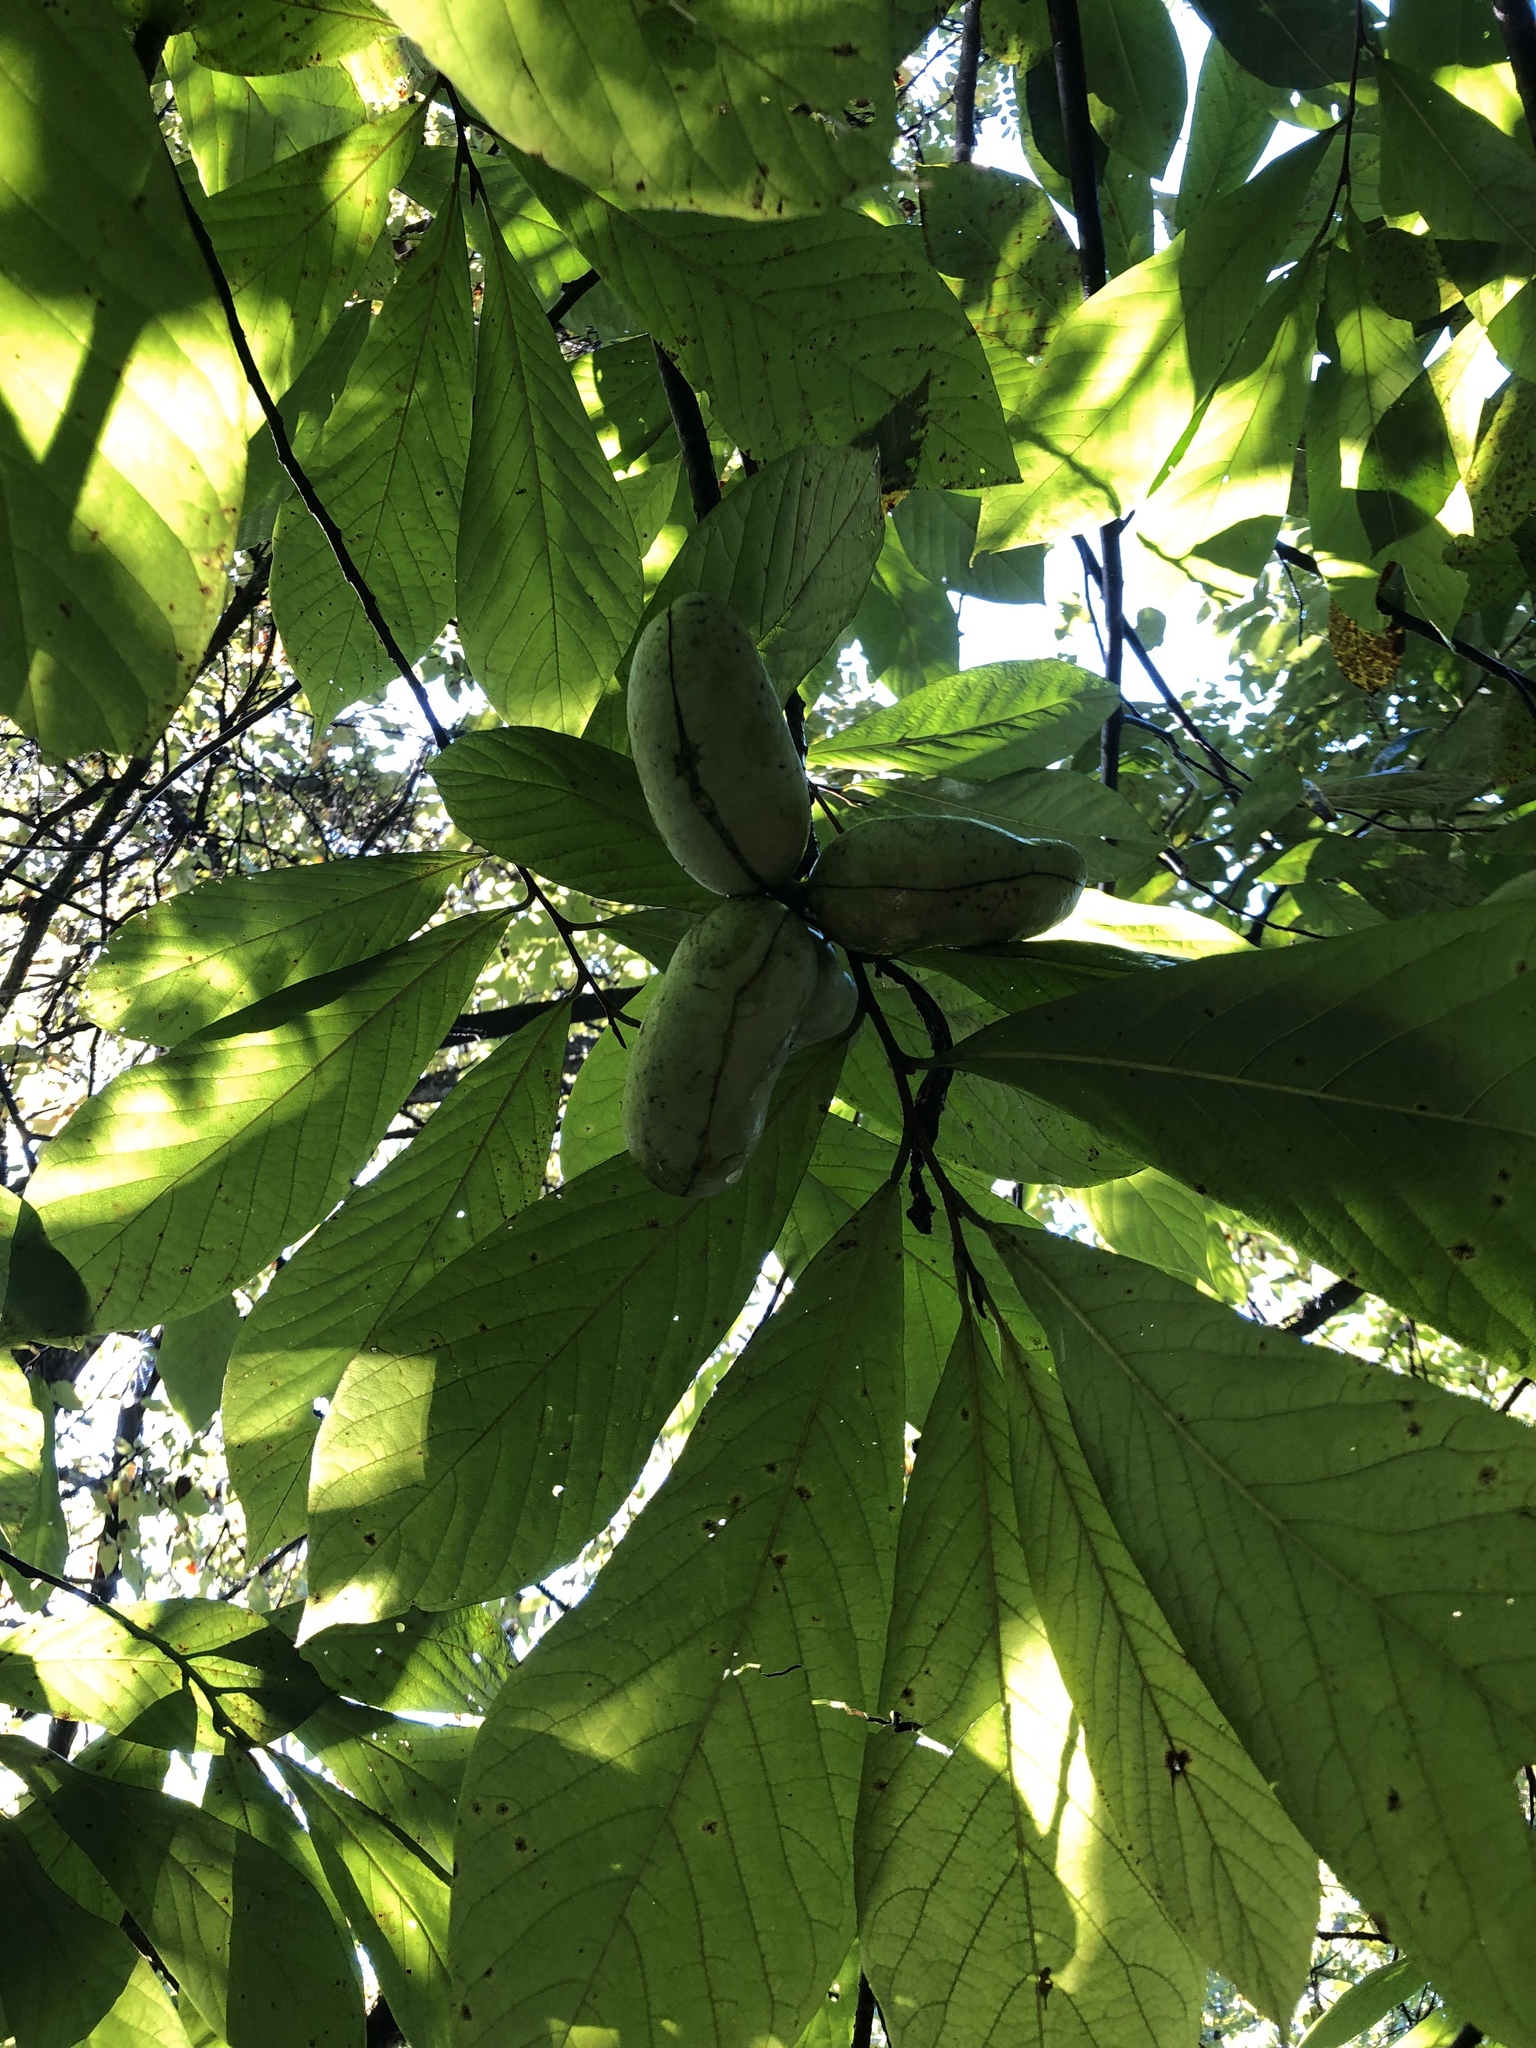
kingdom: Plantae
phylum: Tracheophyta
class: Magnoliopsida
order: Magnoliales
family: Annonaceae
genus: Asimina
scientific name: Asimina triloba
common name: Dog-banana
